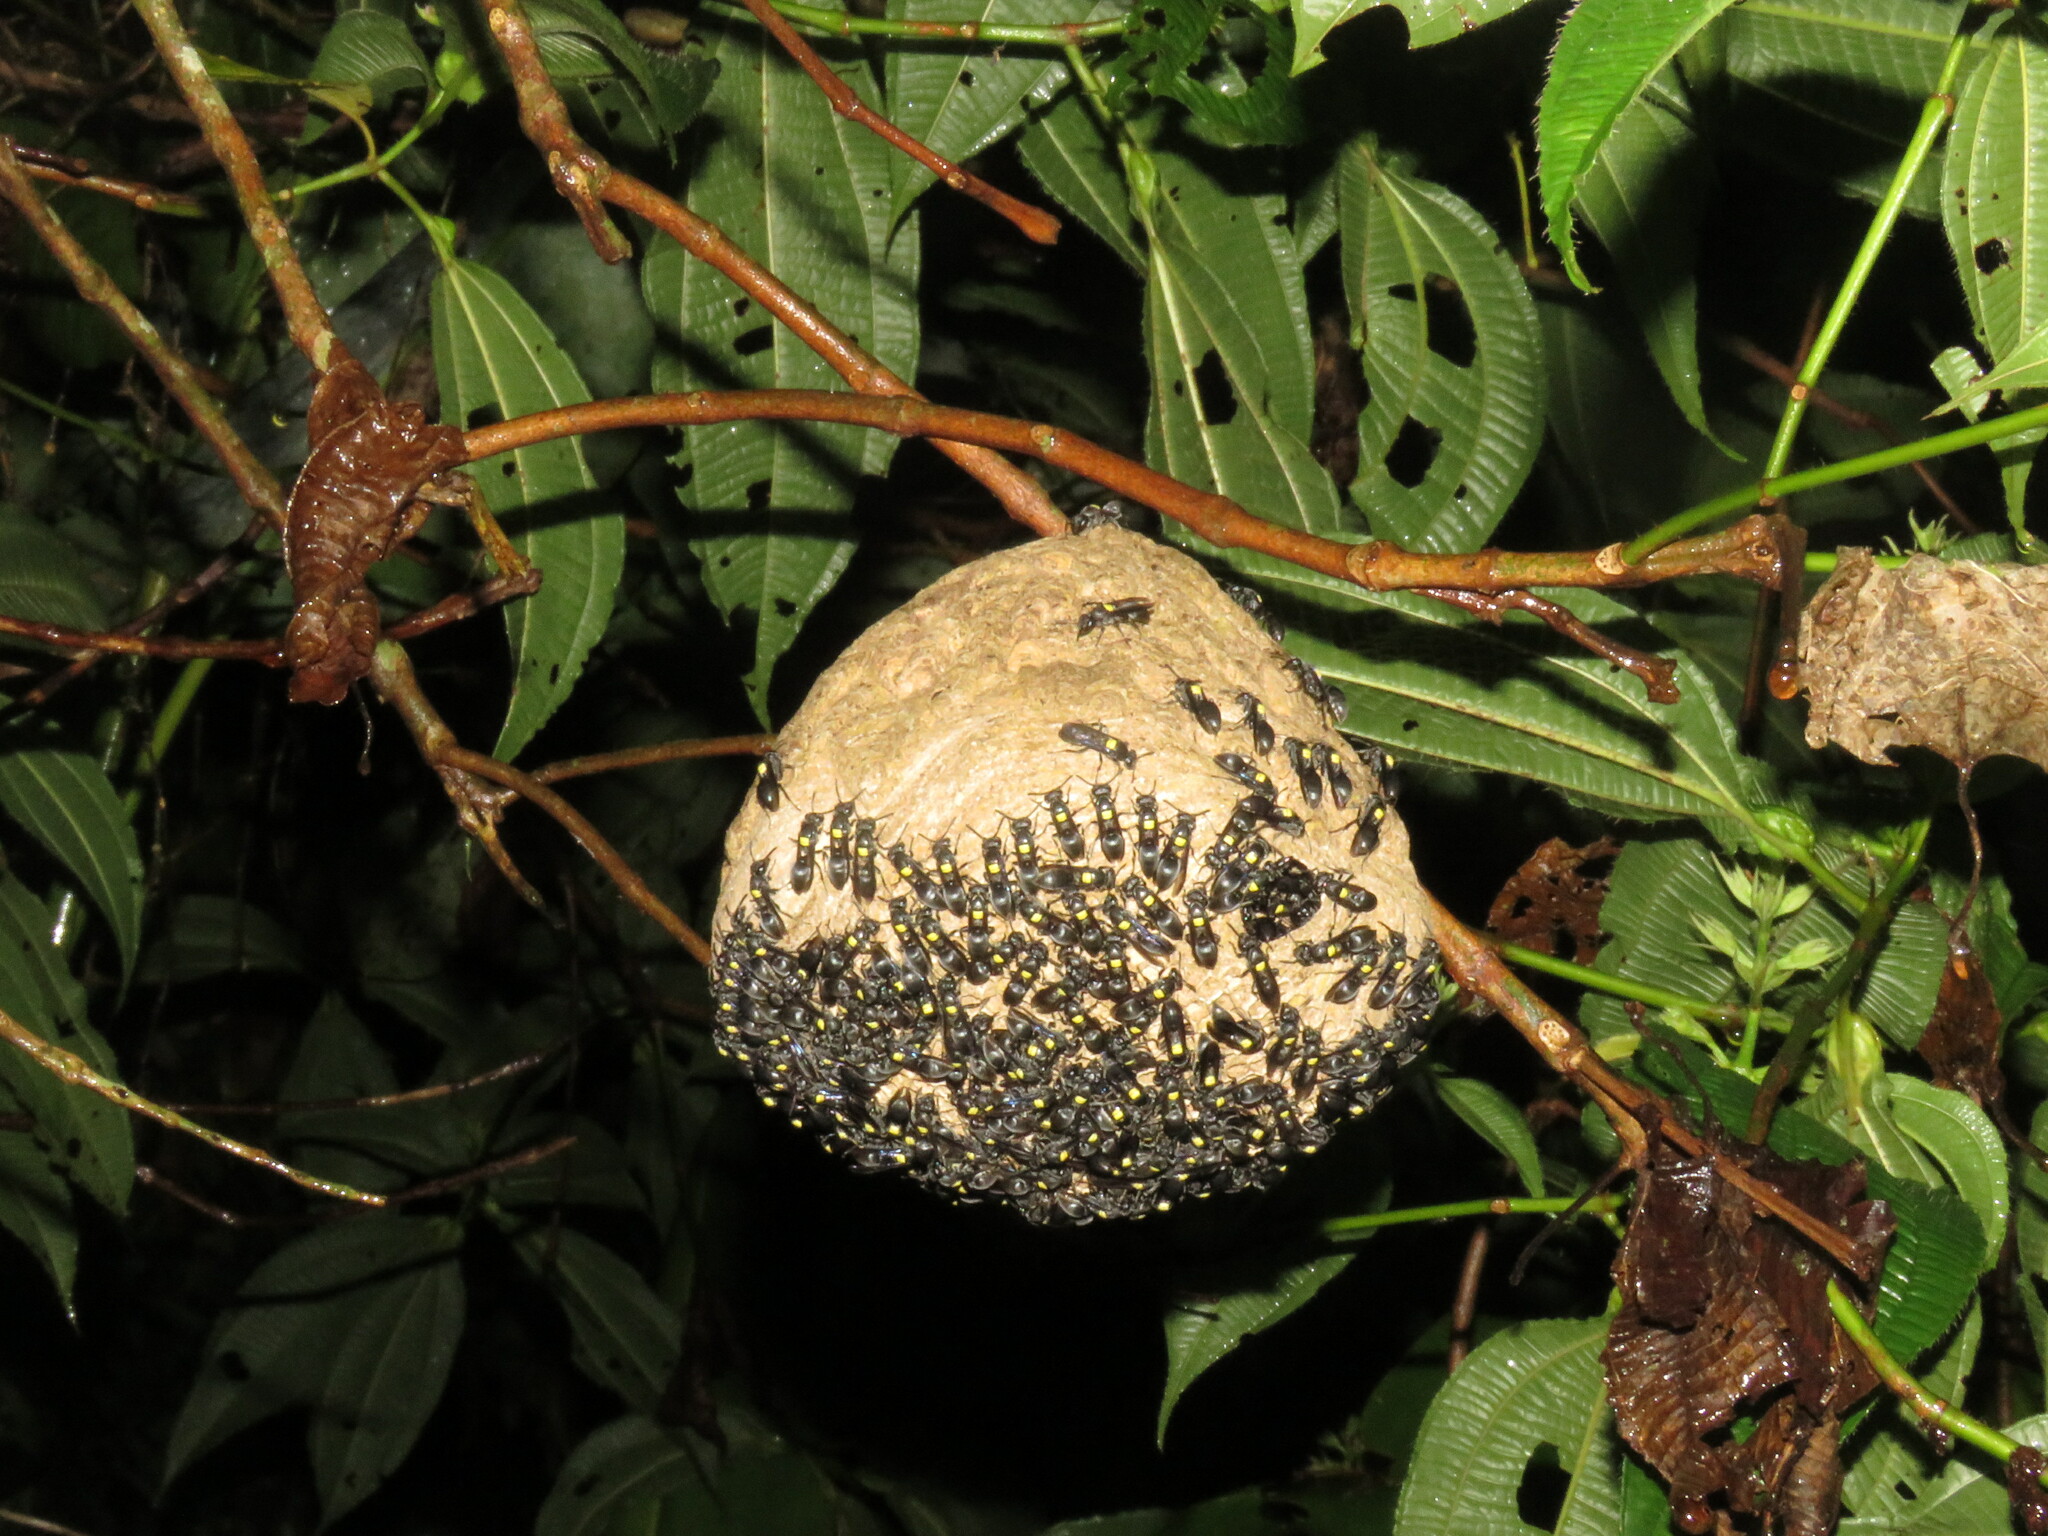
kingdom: Animalia
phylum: Arthropoda
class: Insecta
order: Hymenoptera
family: Eumenidae
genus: Polybia
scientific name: Polybia jurinei
